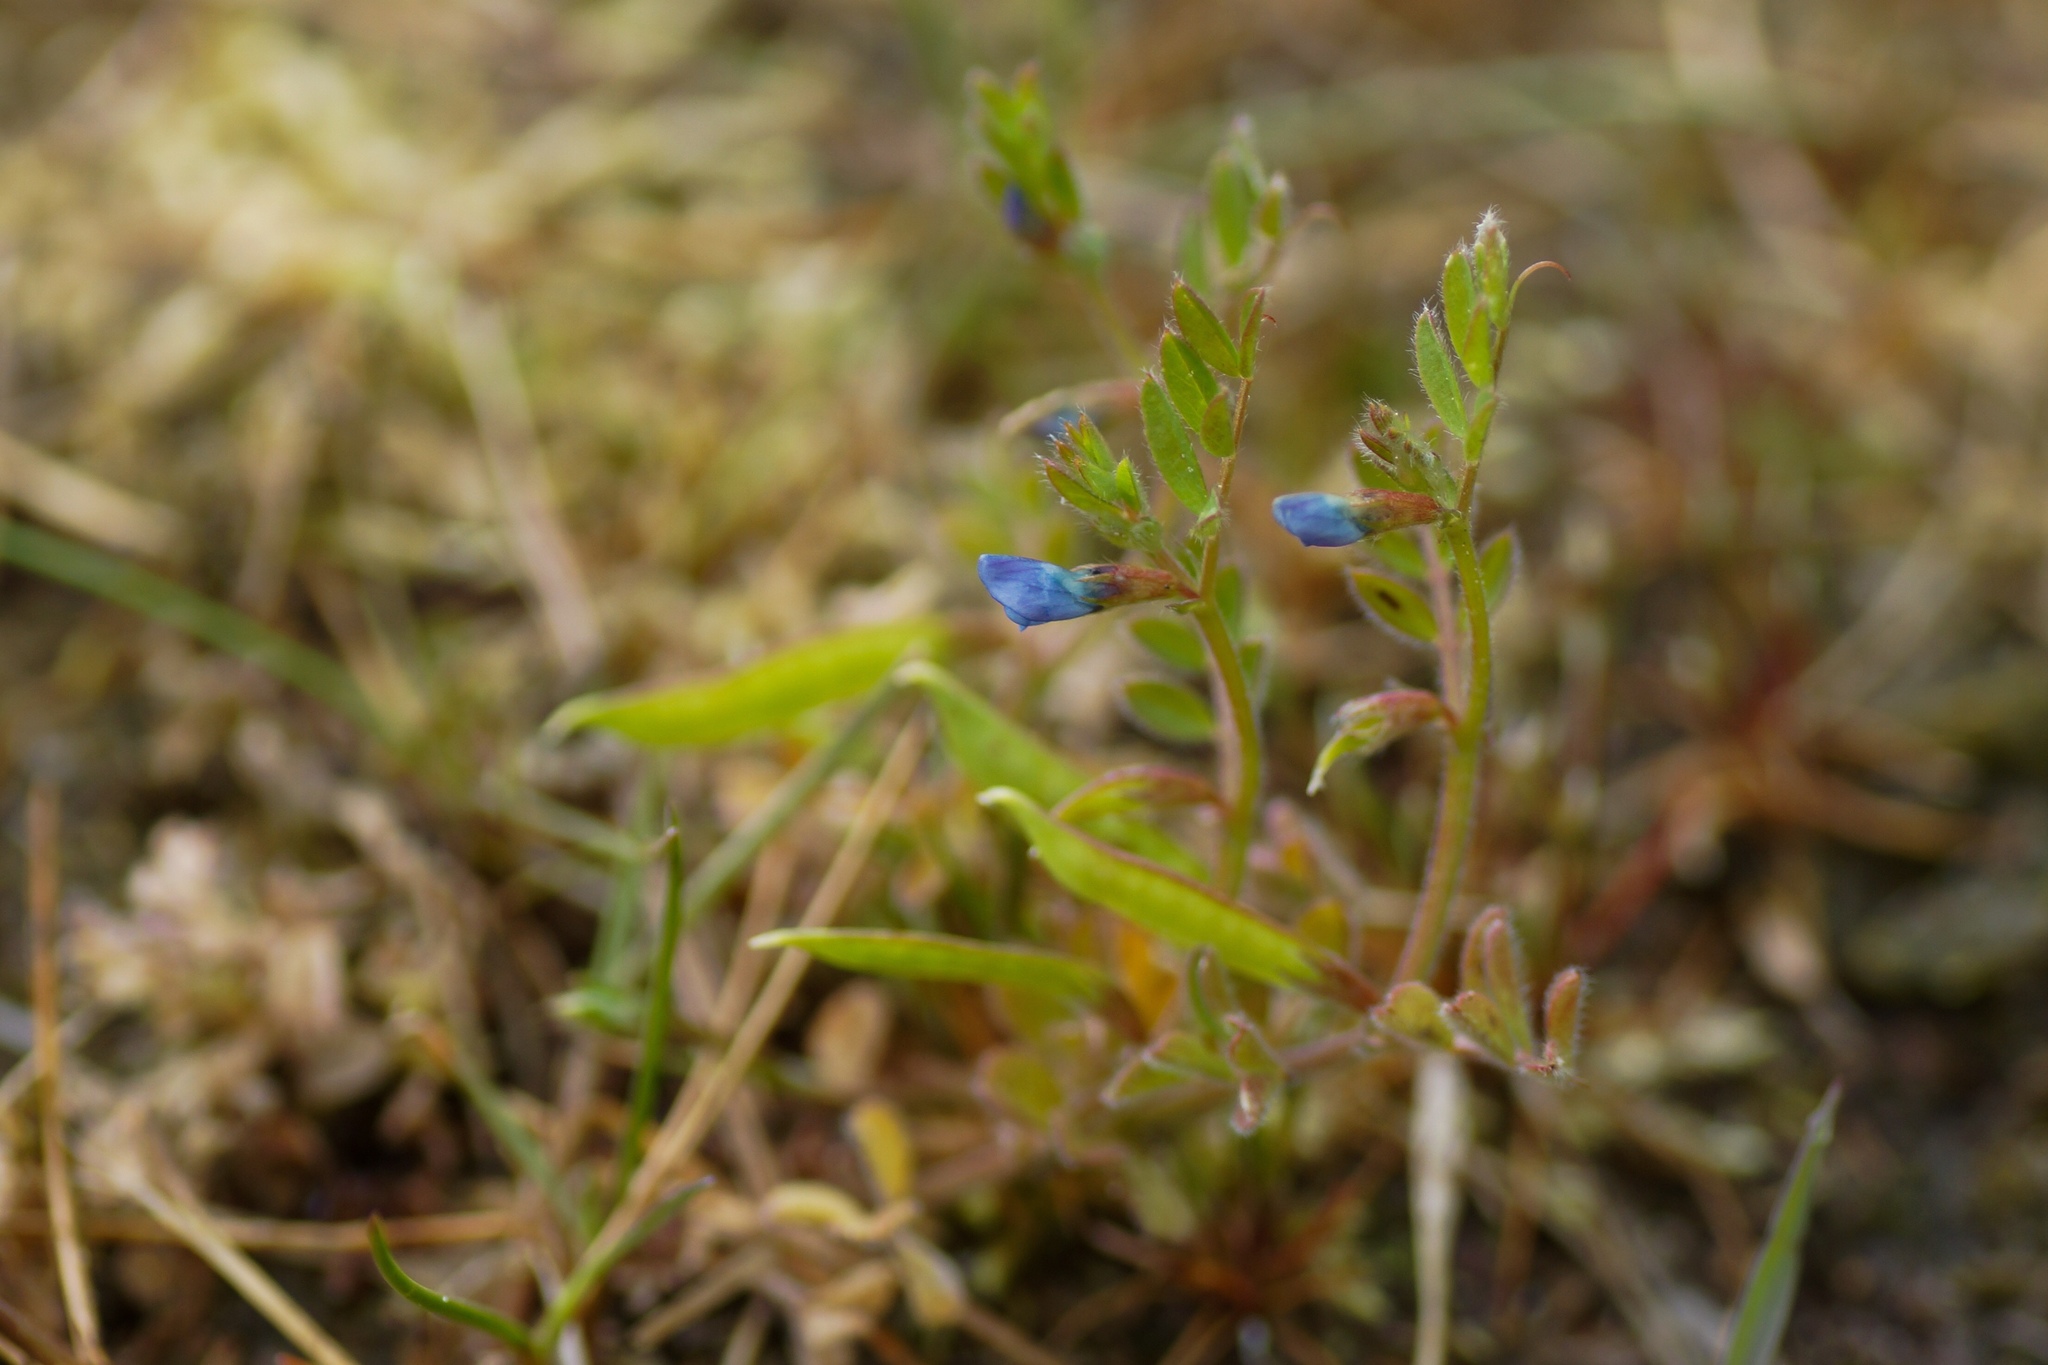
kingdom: Plantae
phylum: Tracheophyta
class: Magnoliopsida
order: Fabales
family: Fabaceae
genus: Vicia
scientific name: Vicia lathyroides
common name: Spring vetch
